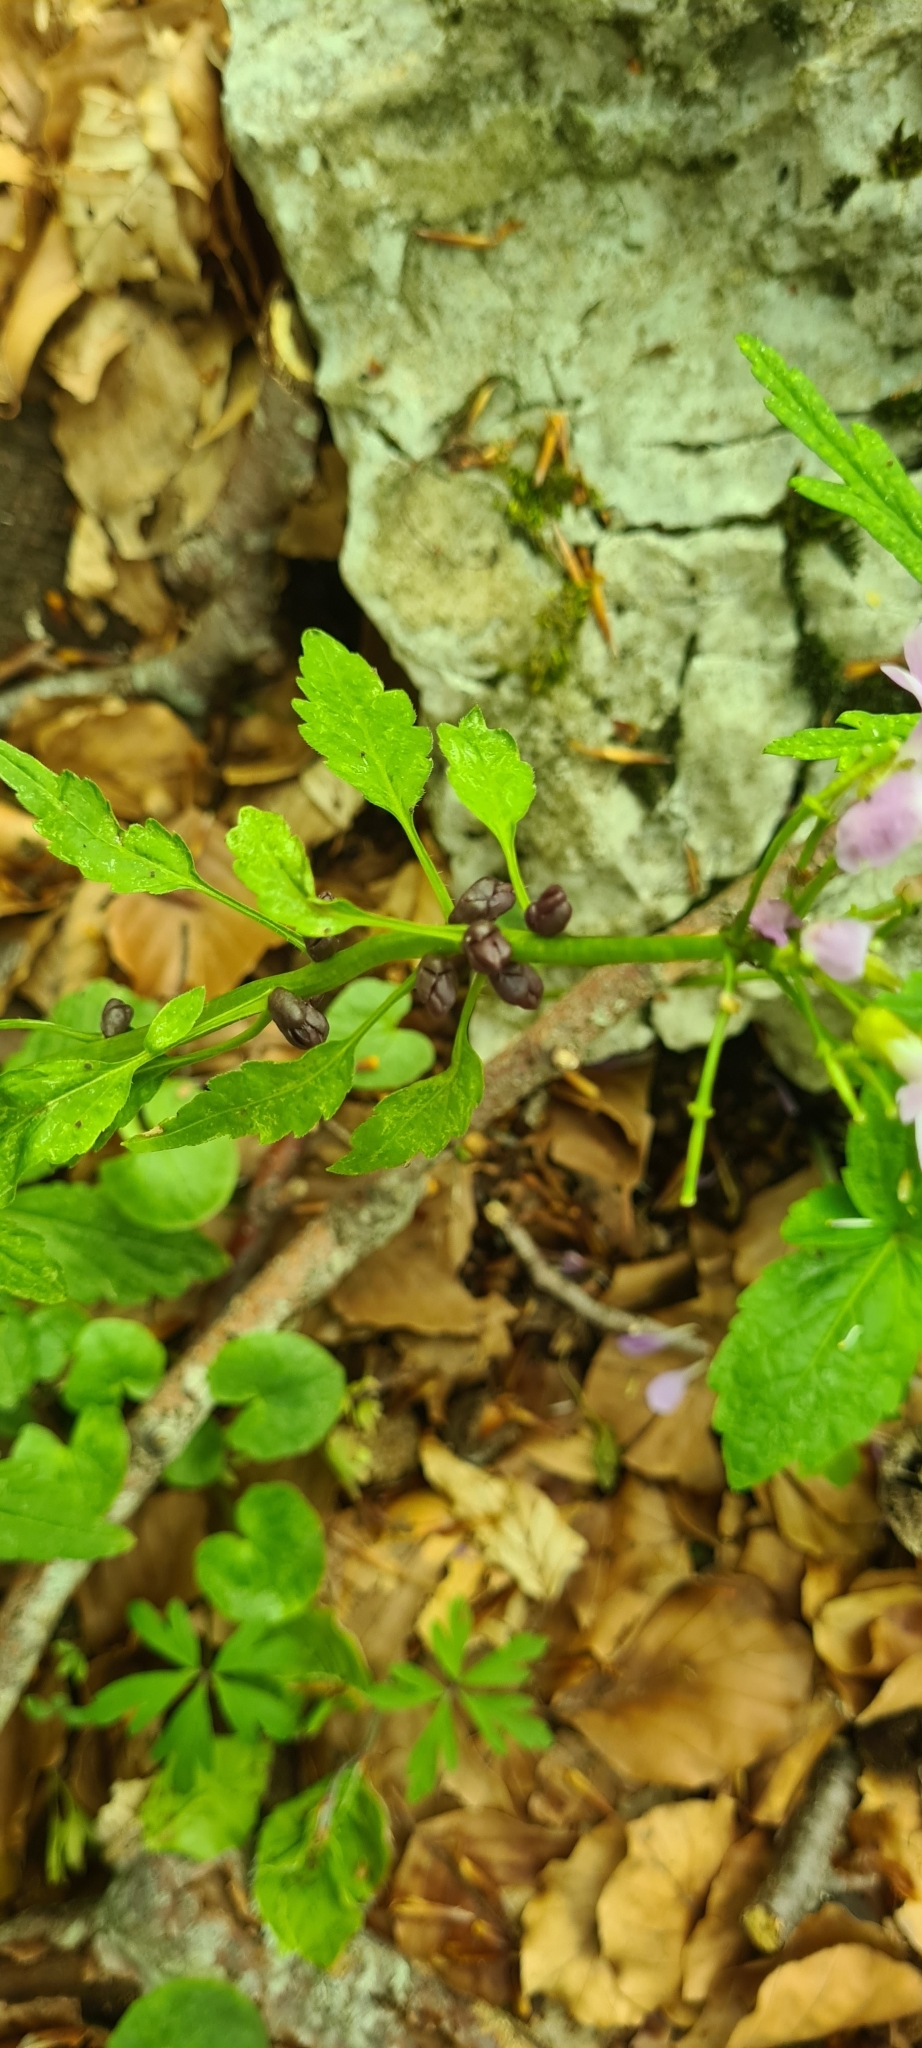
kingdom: Plantae
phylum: Tracheophyta
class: Magnoliopsida
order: Brassicales
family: Brassicaceae
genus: Cardamine
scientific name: Cardamine bulbifera
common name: Coralroot bittercress
